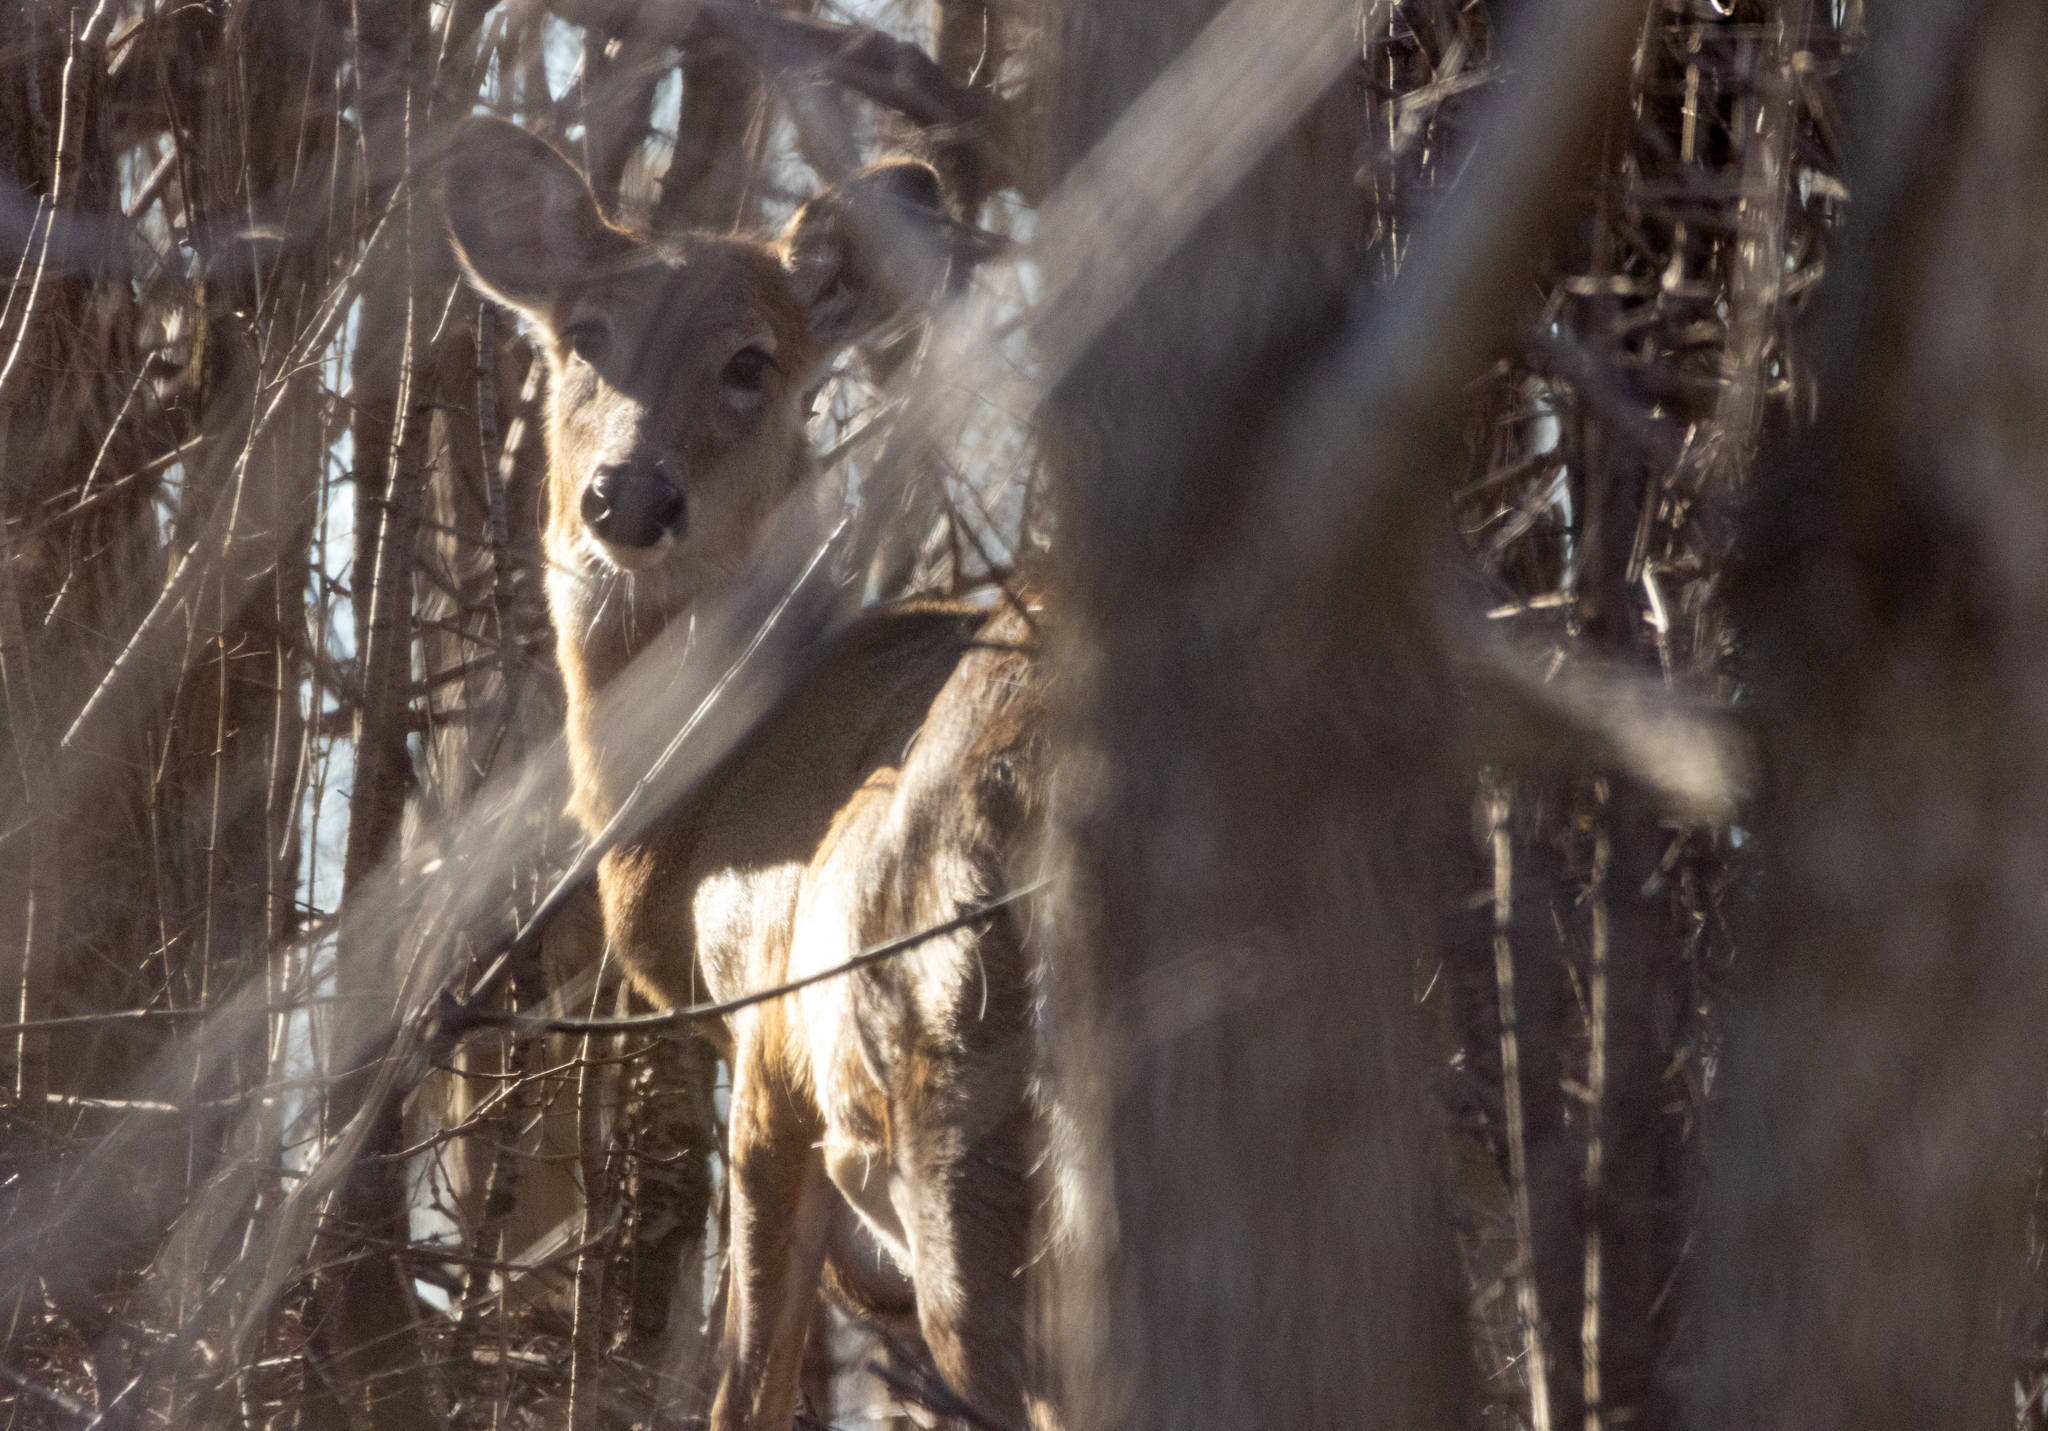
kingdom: Animalia
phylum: Chordata
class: Mammalia
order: Artiodactyla
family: Cervidae
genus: Odocoileus
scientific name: Odocoileus virginianus
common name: White-tailed deer
